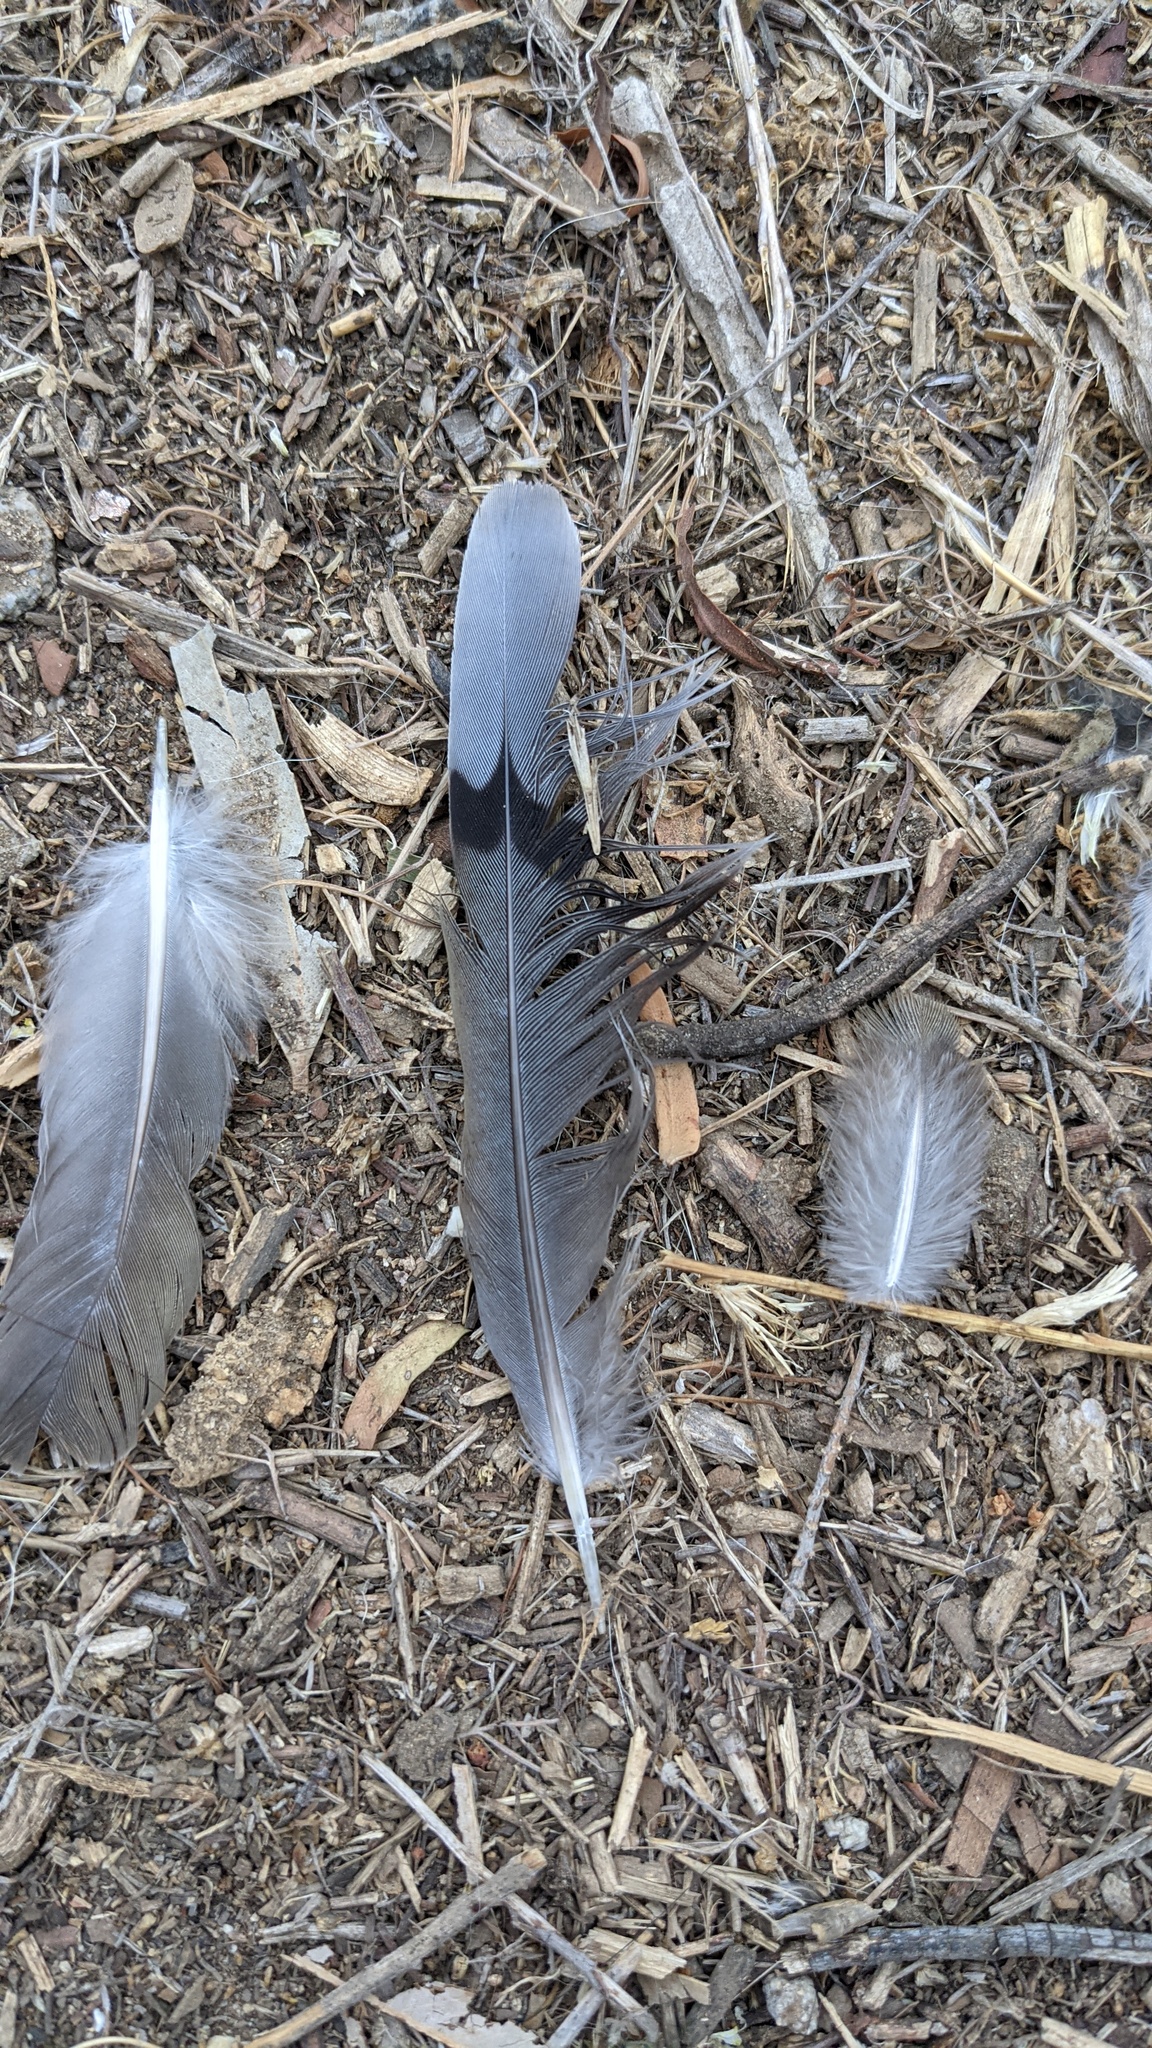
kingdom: Animalia
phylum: Chordata
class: Aves
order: Columbiformes
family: Columbidae
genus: Zenaida
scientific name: Zenaida macroura
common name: Mourning dove
